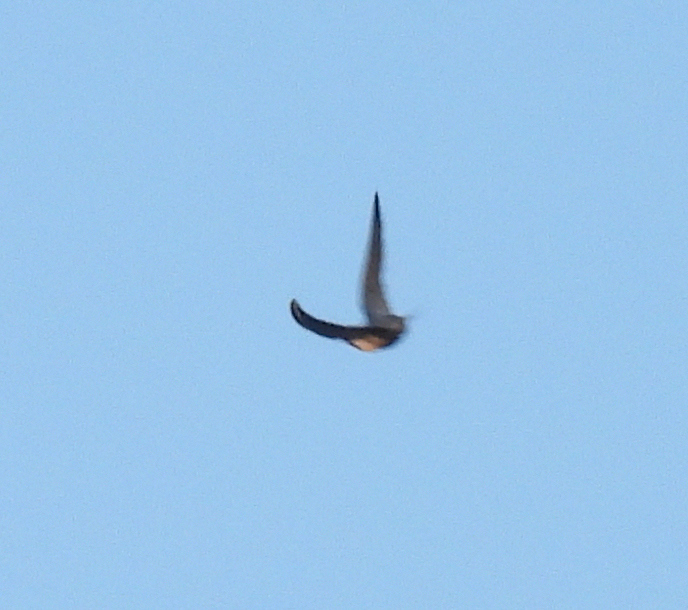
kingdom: Animalia
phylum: Chordata
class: Aves
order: Passeriformes
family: Hirundinidae
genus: Hirundo
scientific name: Hirundo rustica
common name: Barn swallow
